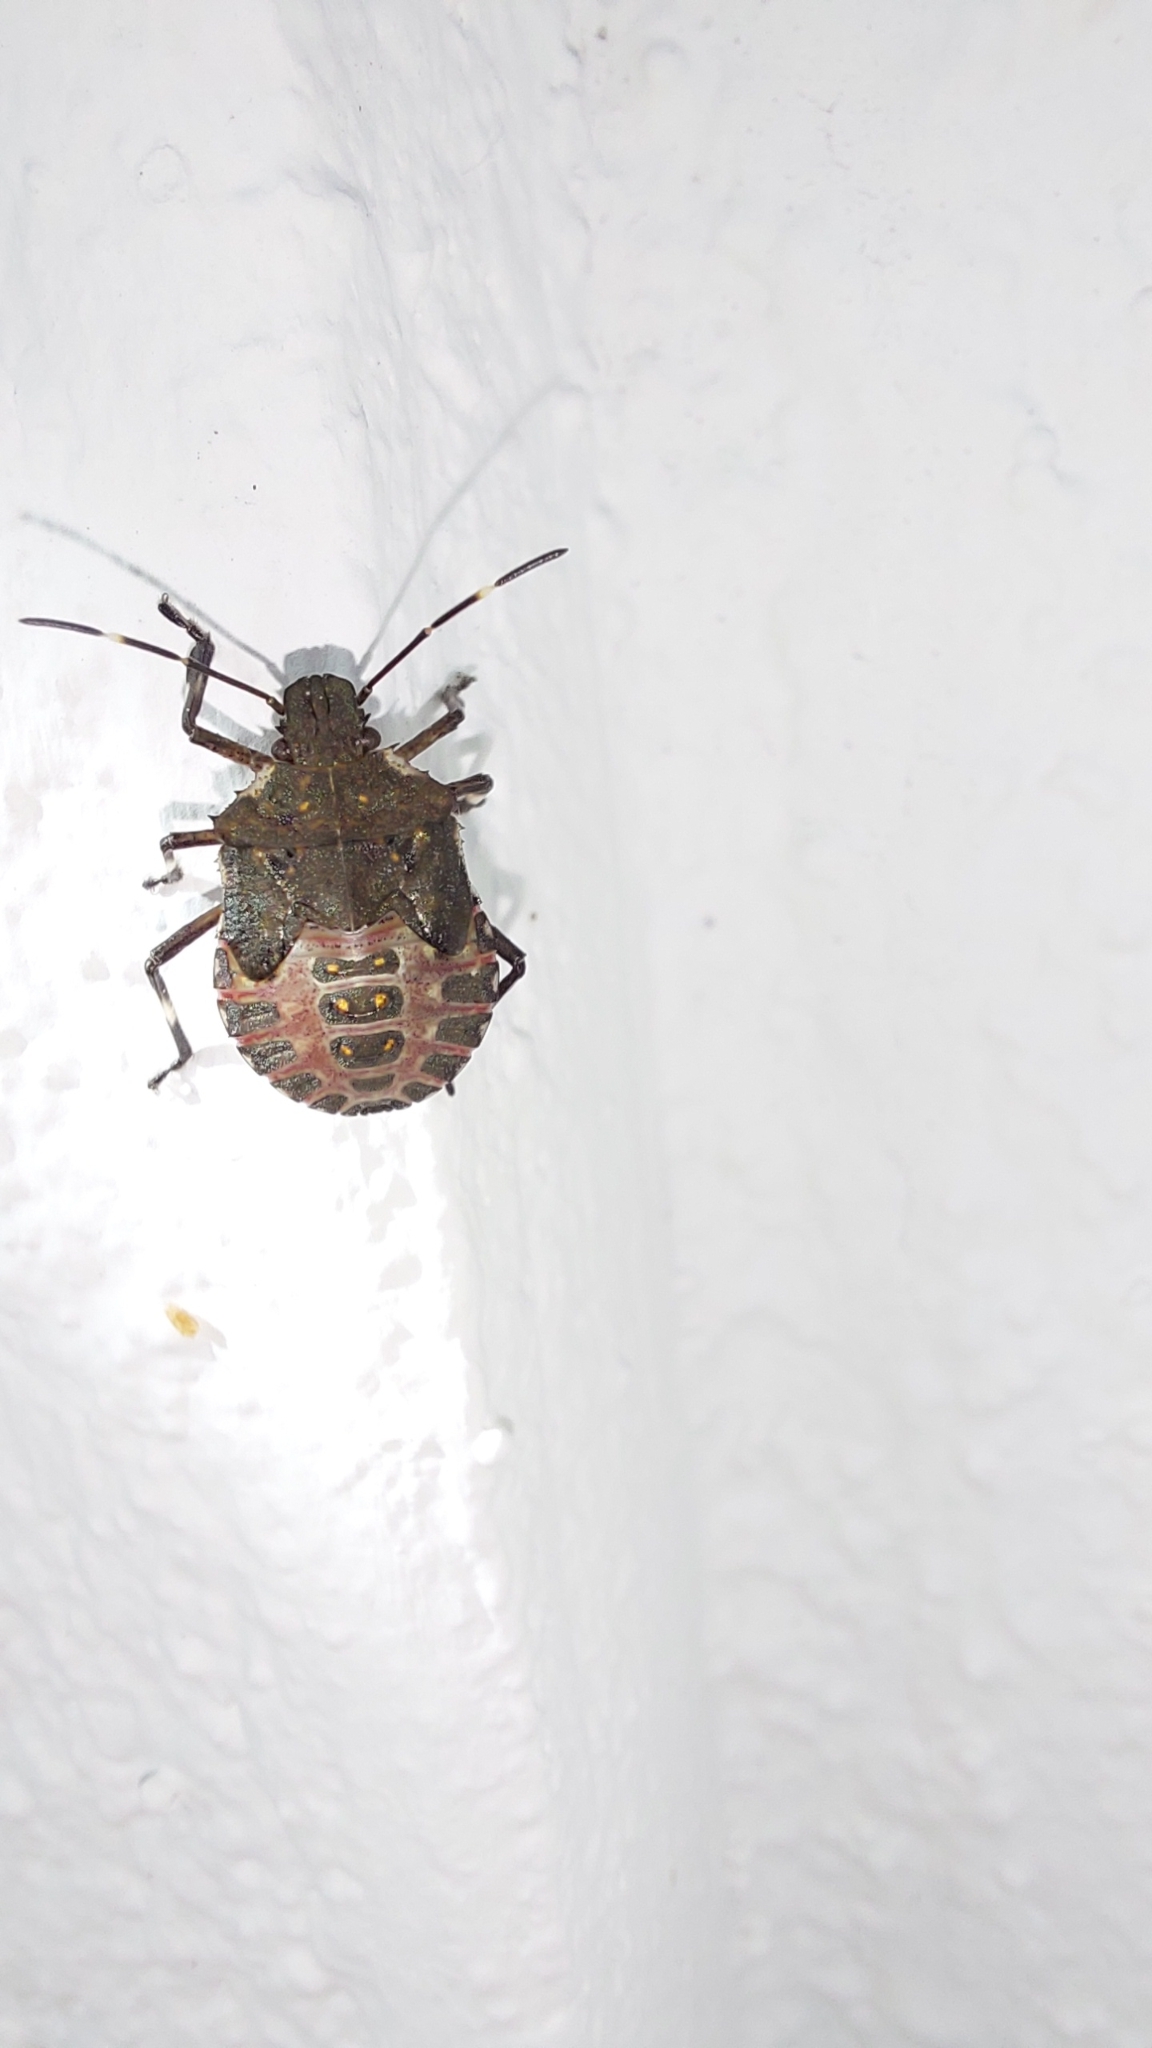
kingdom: Animalia
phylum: Arthropoda
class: Insecta
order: Hemiptera
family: Pentatomidae
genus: Halyomorpha
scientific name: Halyomorpha halys
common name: Brown marmorated stink bug
